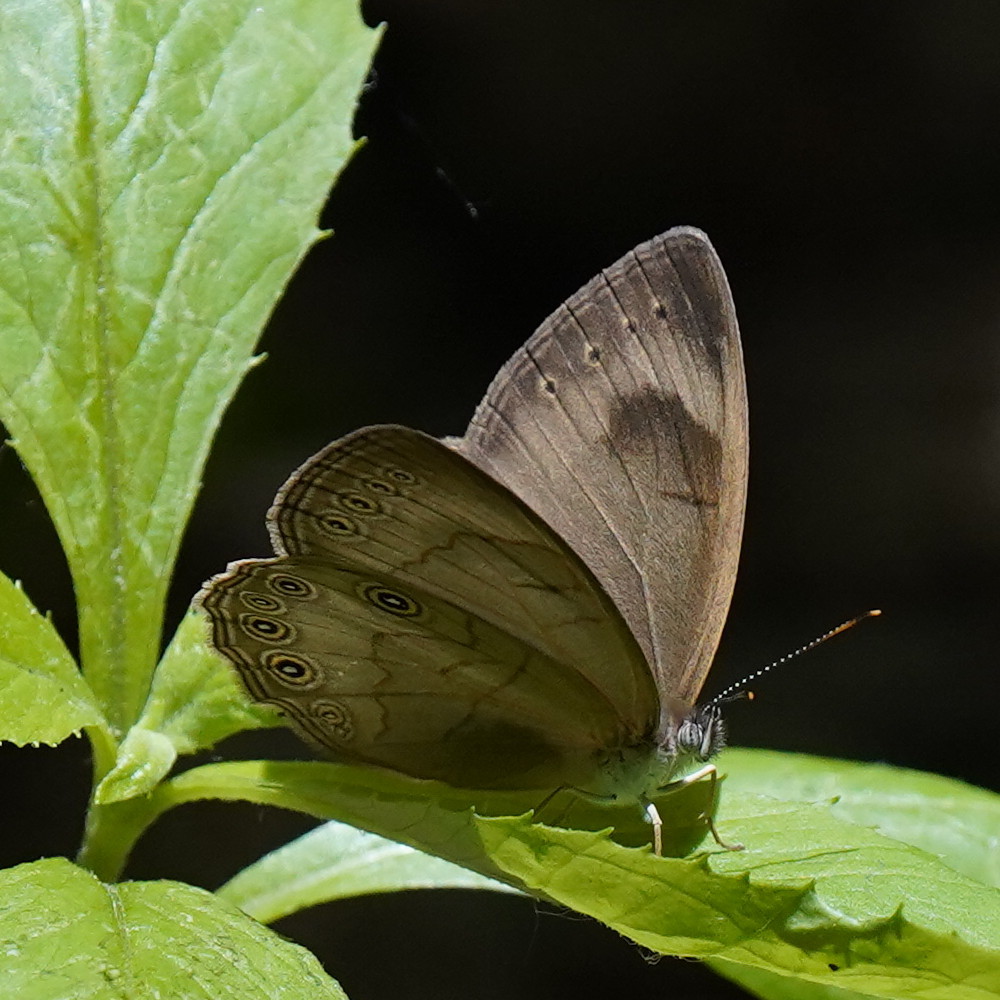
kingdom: Animalia
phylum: Arthropoda
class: Insecta
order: Lepidoptera
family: Nymphalidae
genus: Lethe
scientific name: Lethe eurydice
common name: Eyed brown
